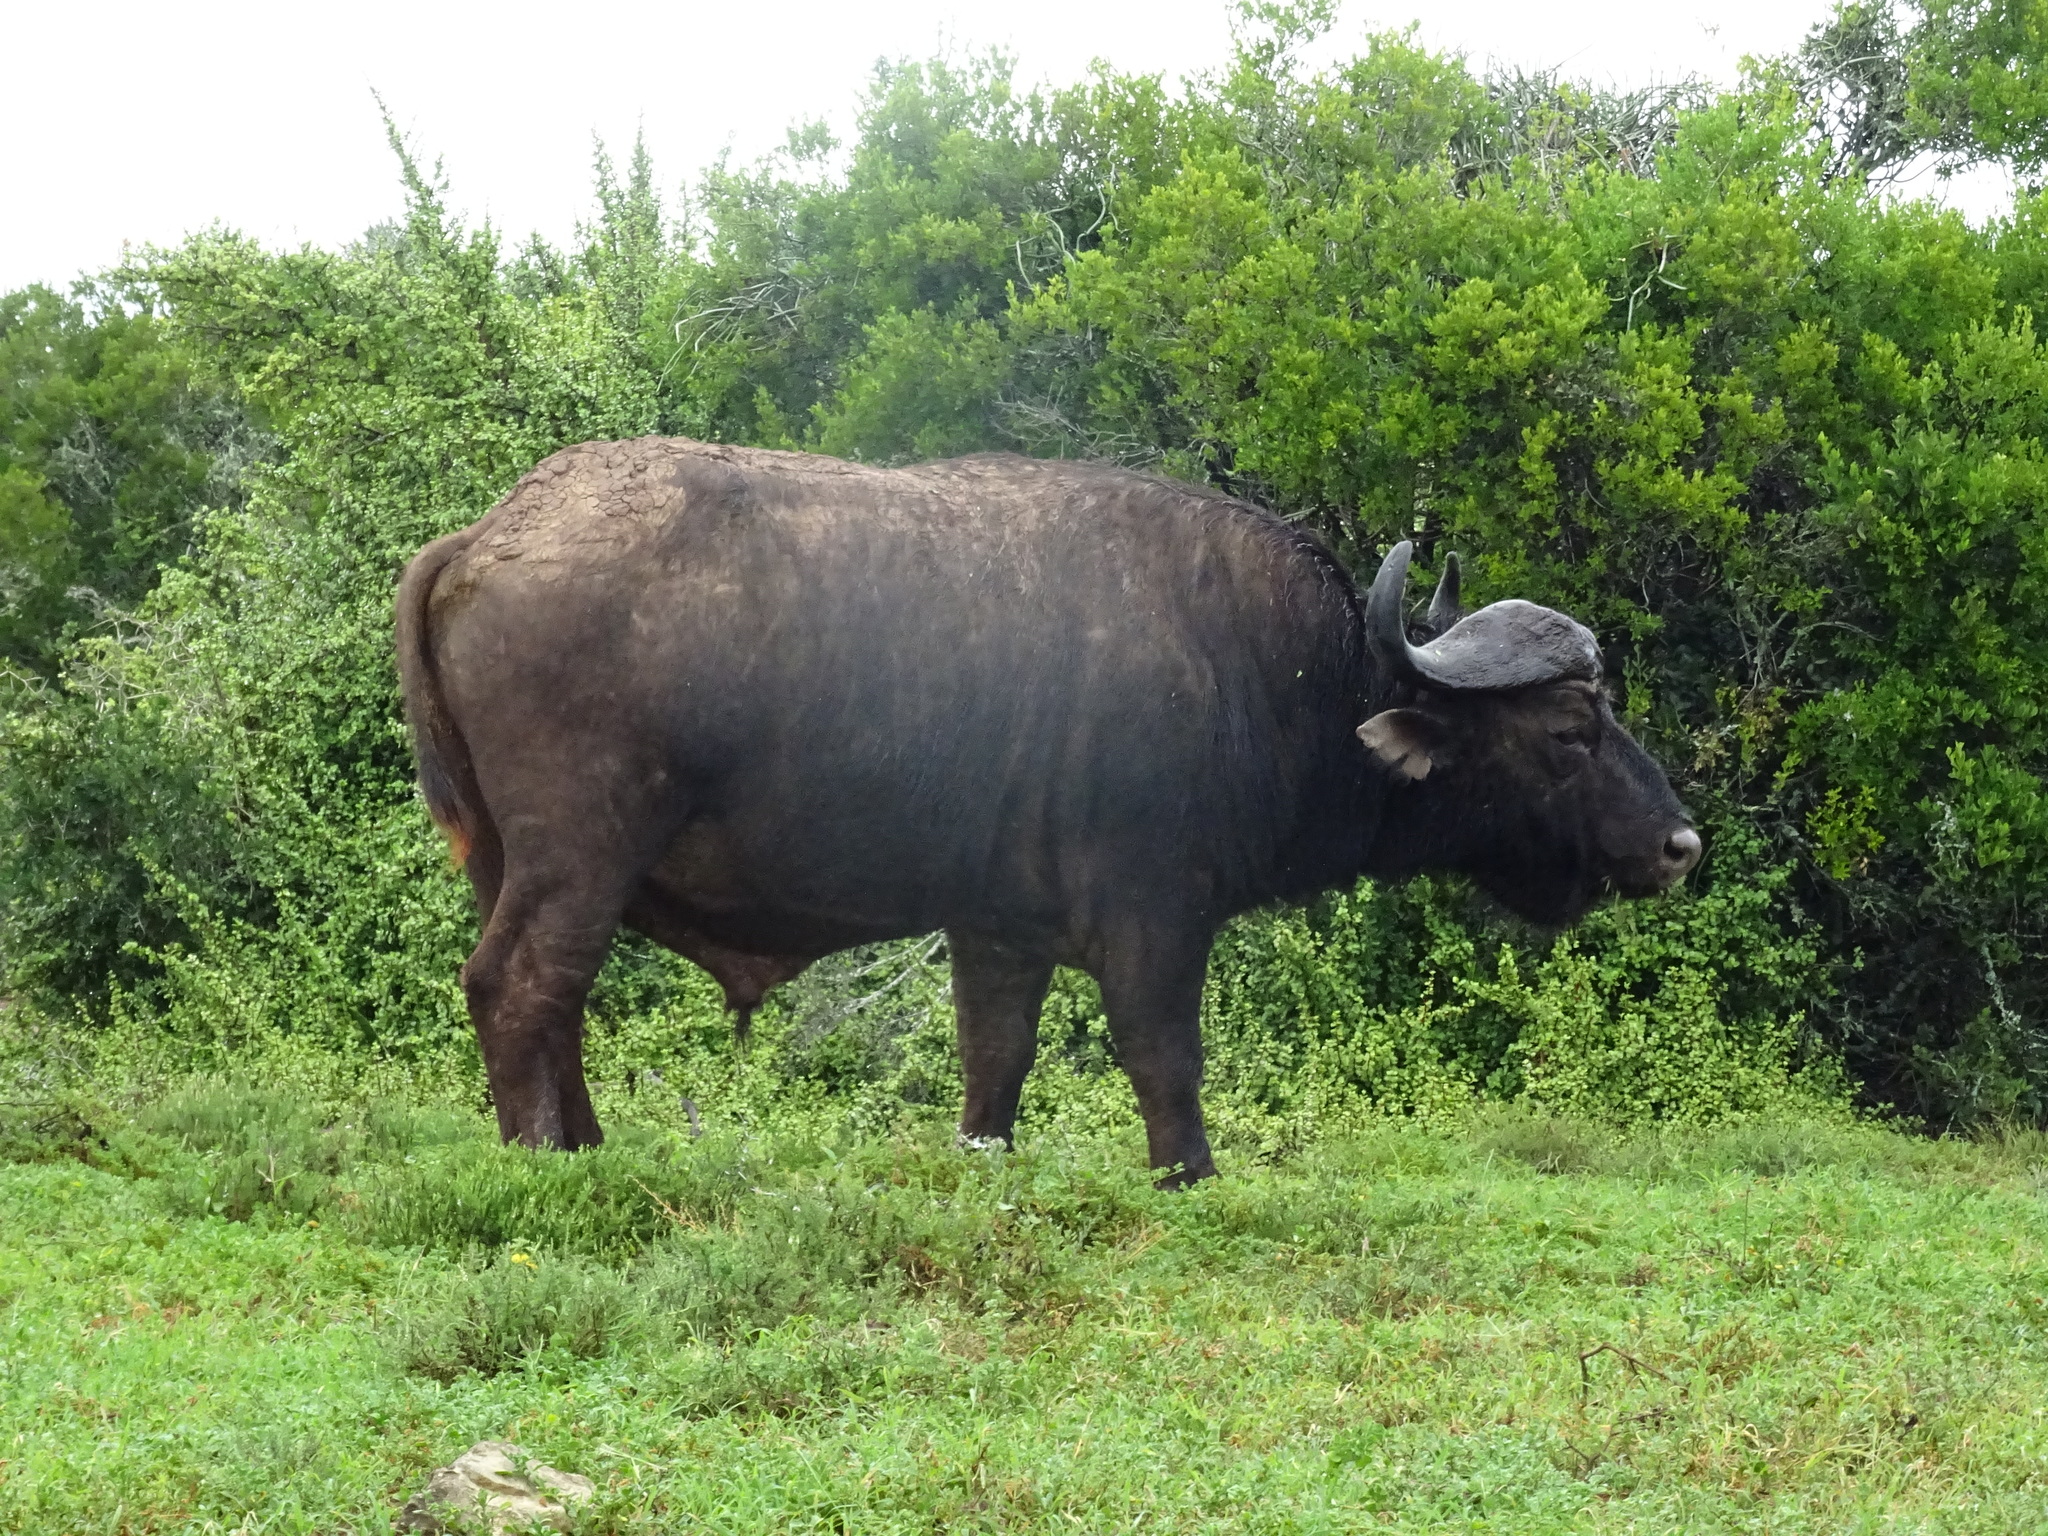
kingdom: Animalia
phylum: Chordata
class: Mammalia
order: Artiodactyla
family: Bovidae
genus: Syncerus
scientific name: Syncerus caffer
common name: African buffalo
